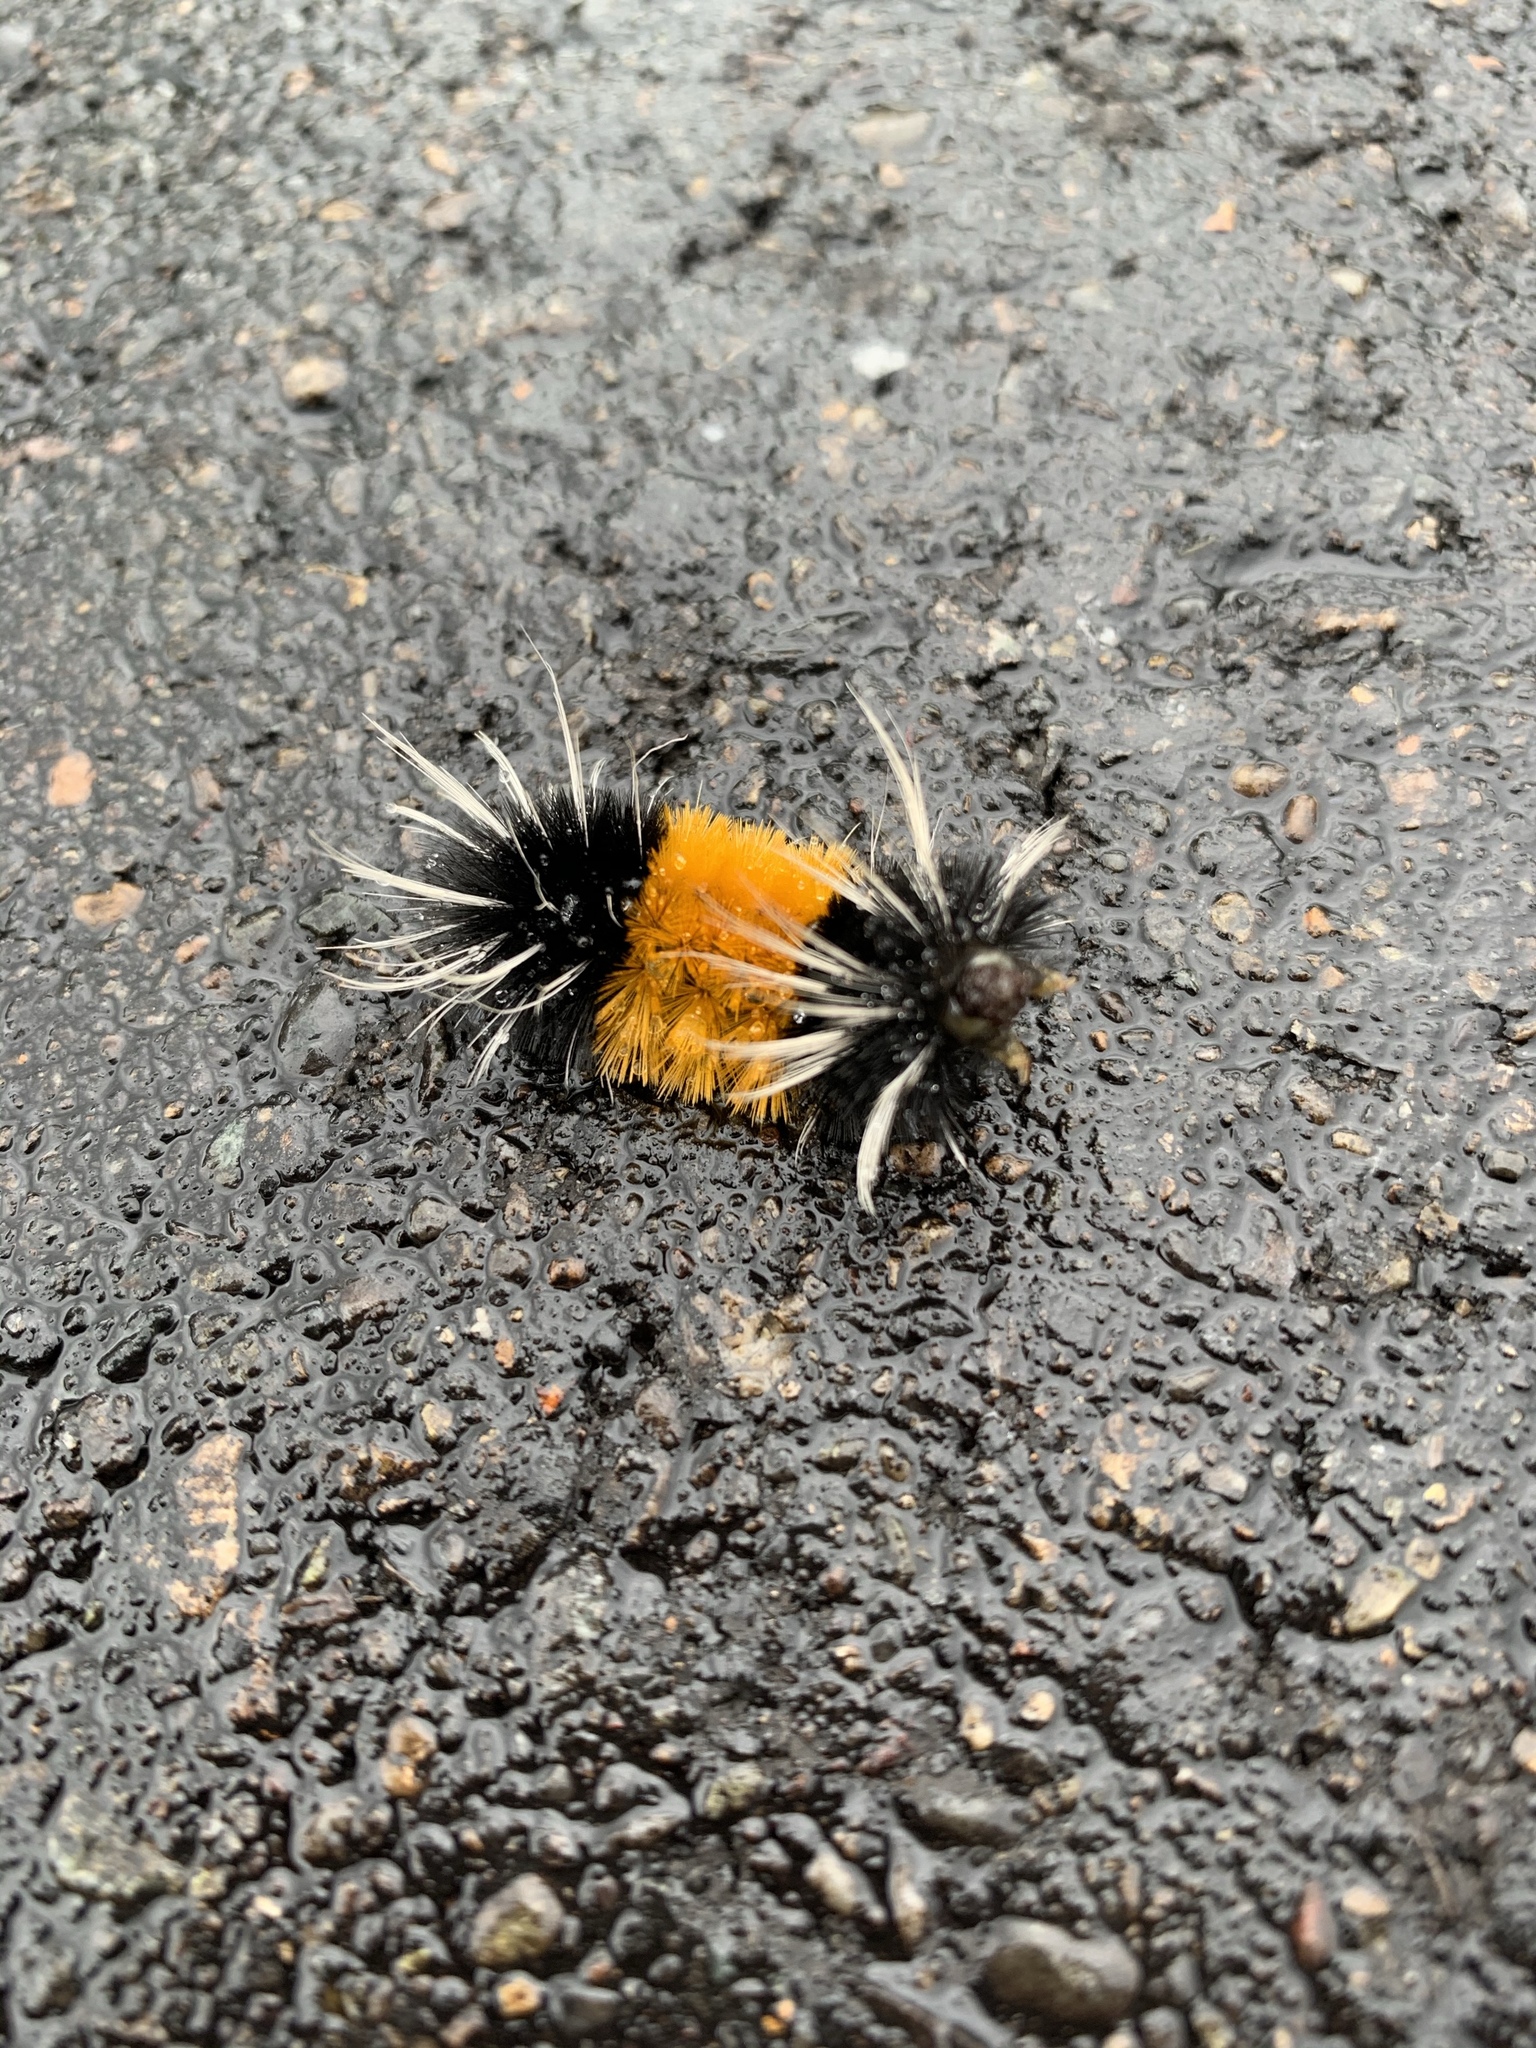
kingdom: Animalia
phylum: Arthropoda
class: Insecta
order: Lepidoptera
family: Erebidae
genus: Lophocampa
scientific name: Lophocampa maculata
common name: Spotted tussock moth
